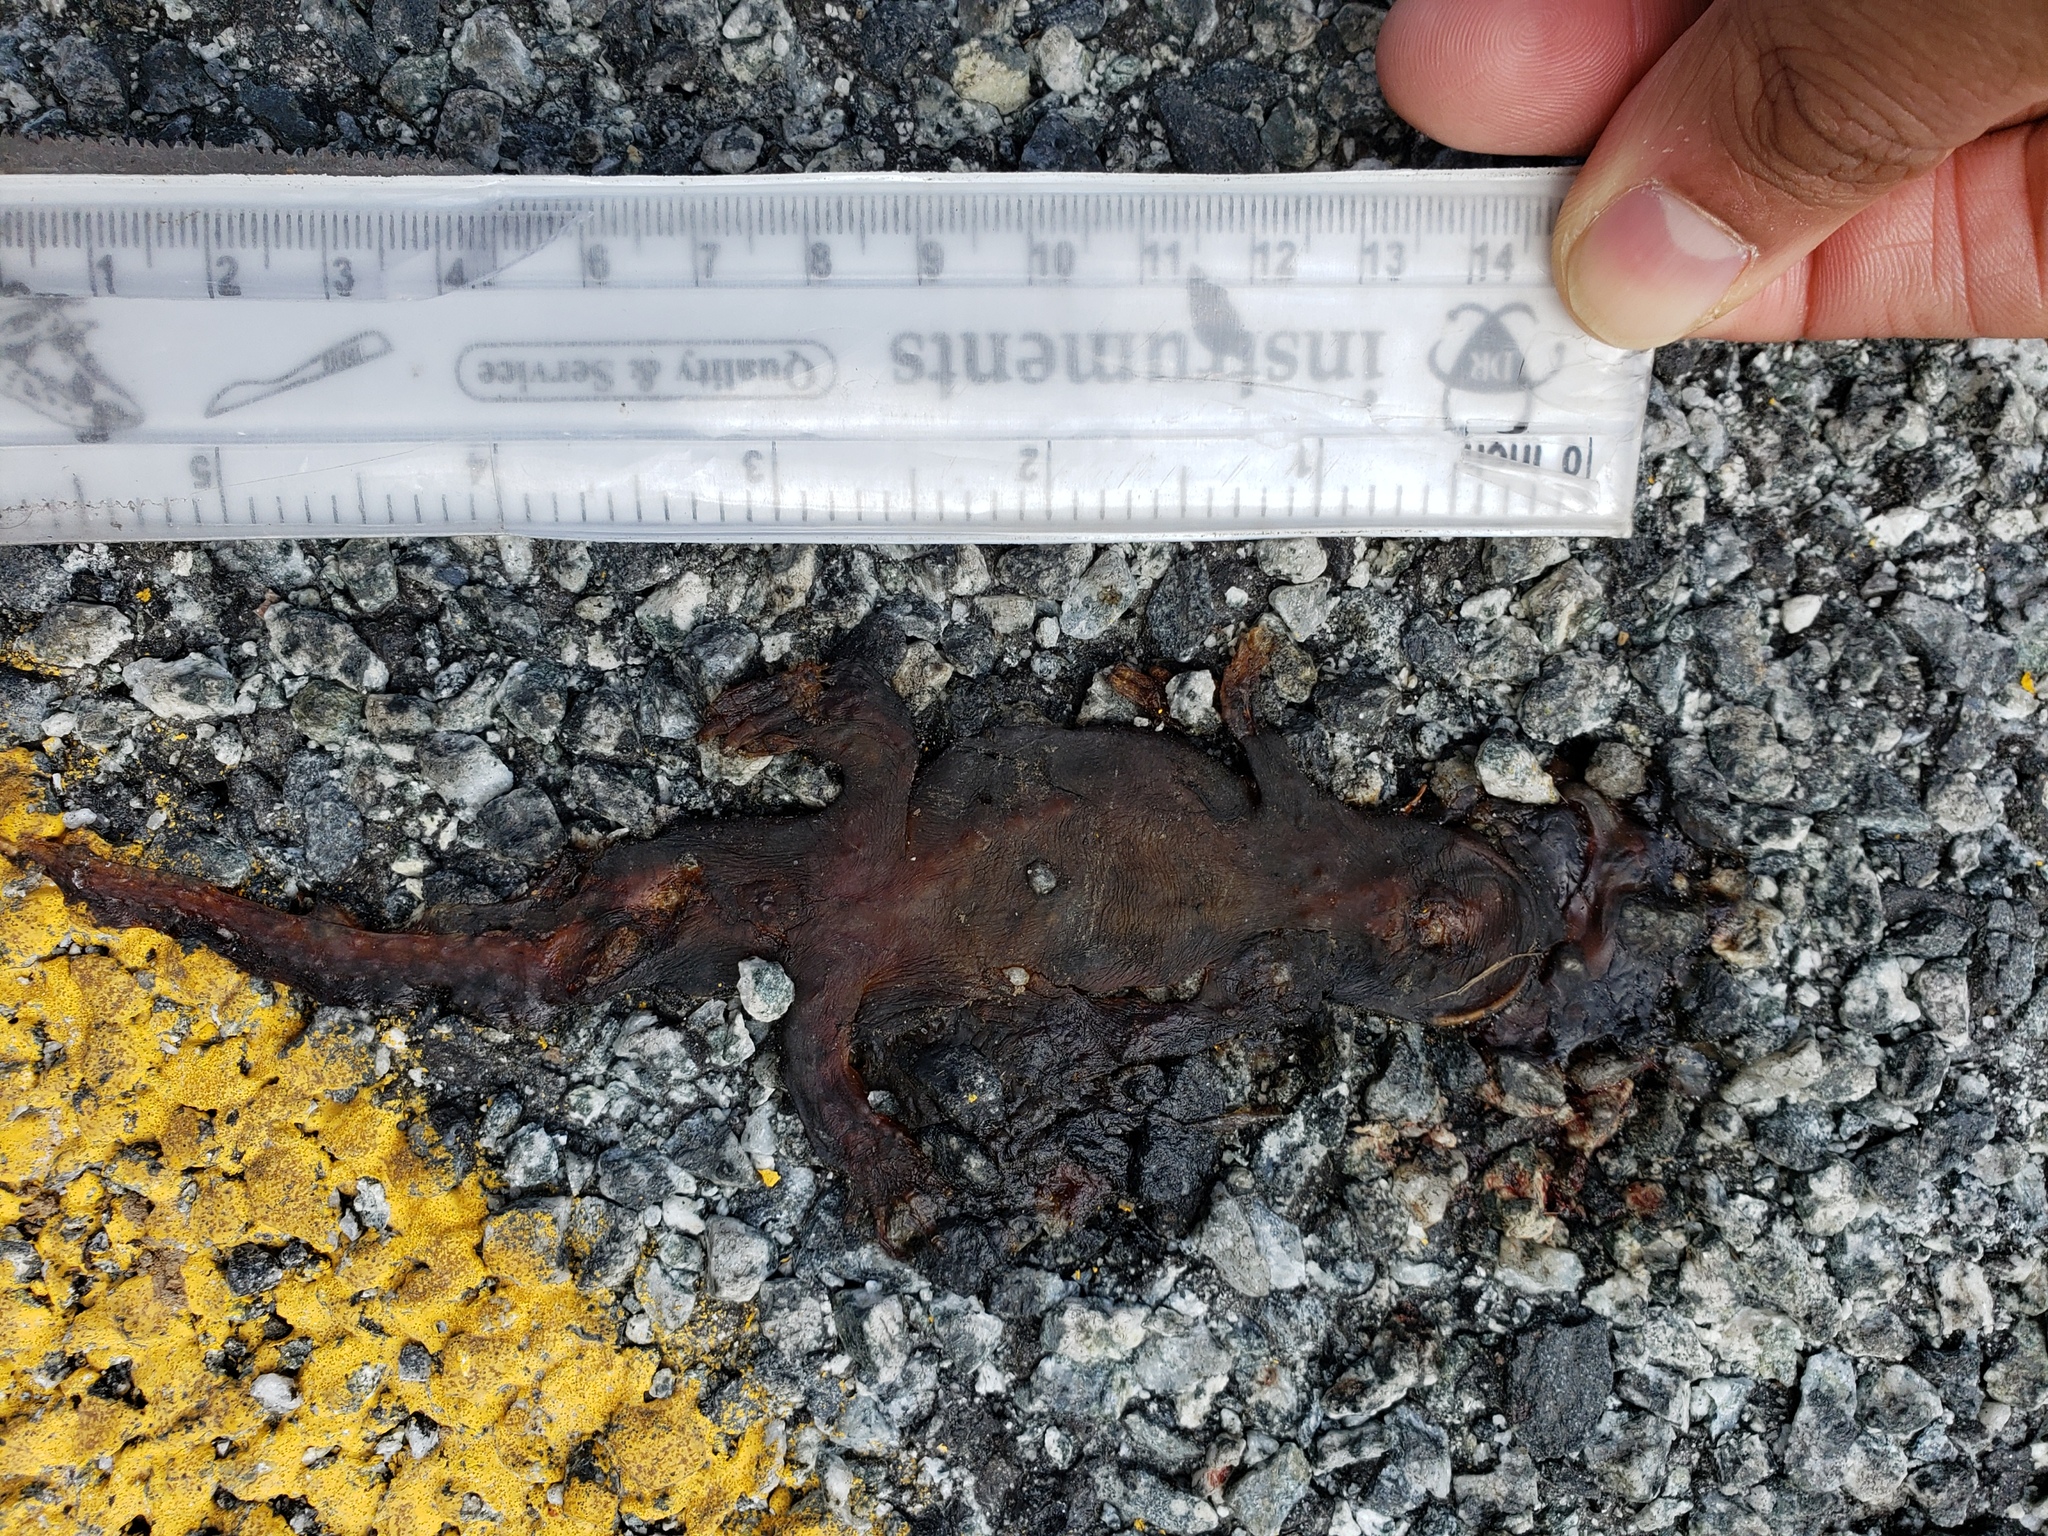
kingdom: Animalia
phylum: Chordata
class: Amphibia
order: Caudata
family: Salamandridae
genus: Taricha
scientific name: Taricha
